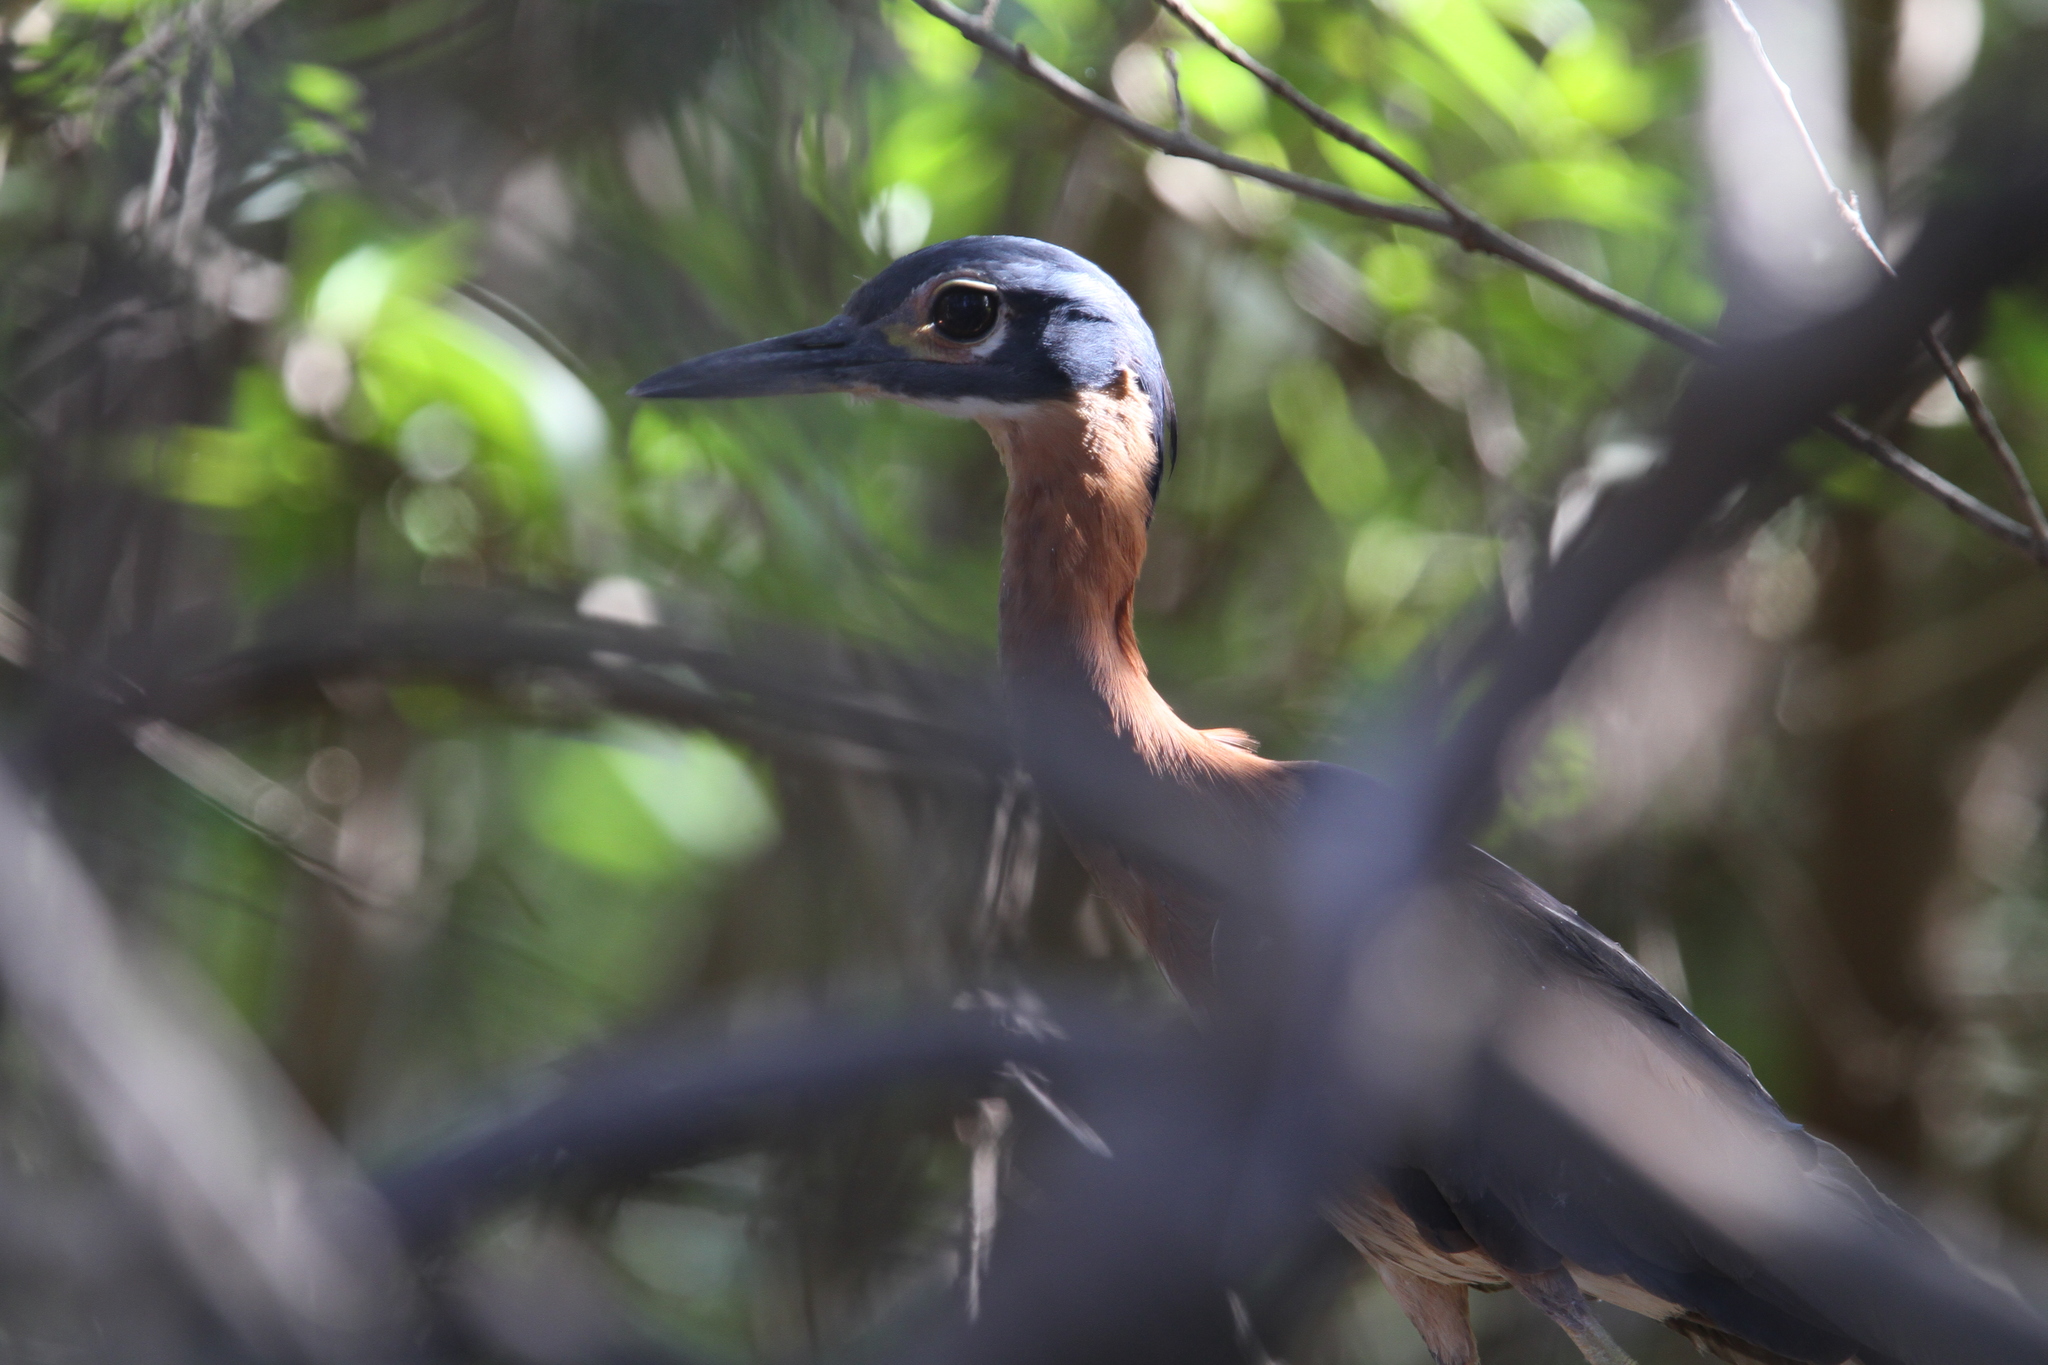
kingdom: Animalia
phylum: Chordata
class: Aves
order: Pelecaniformes
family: Ardeidae
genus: Gorsachius
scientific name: Gorsachius leuconotus
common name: White-backed night heron
